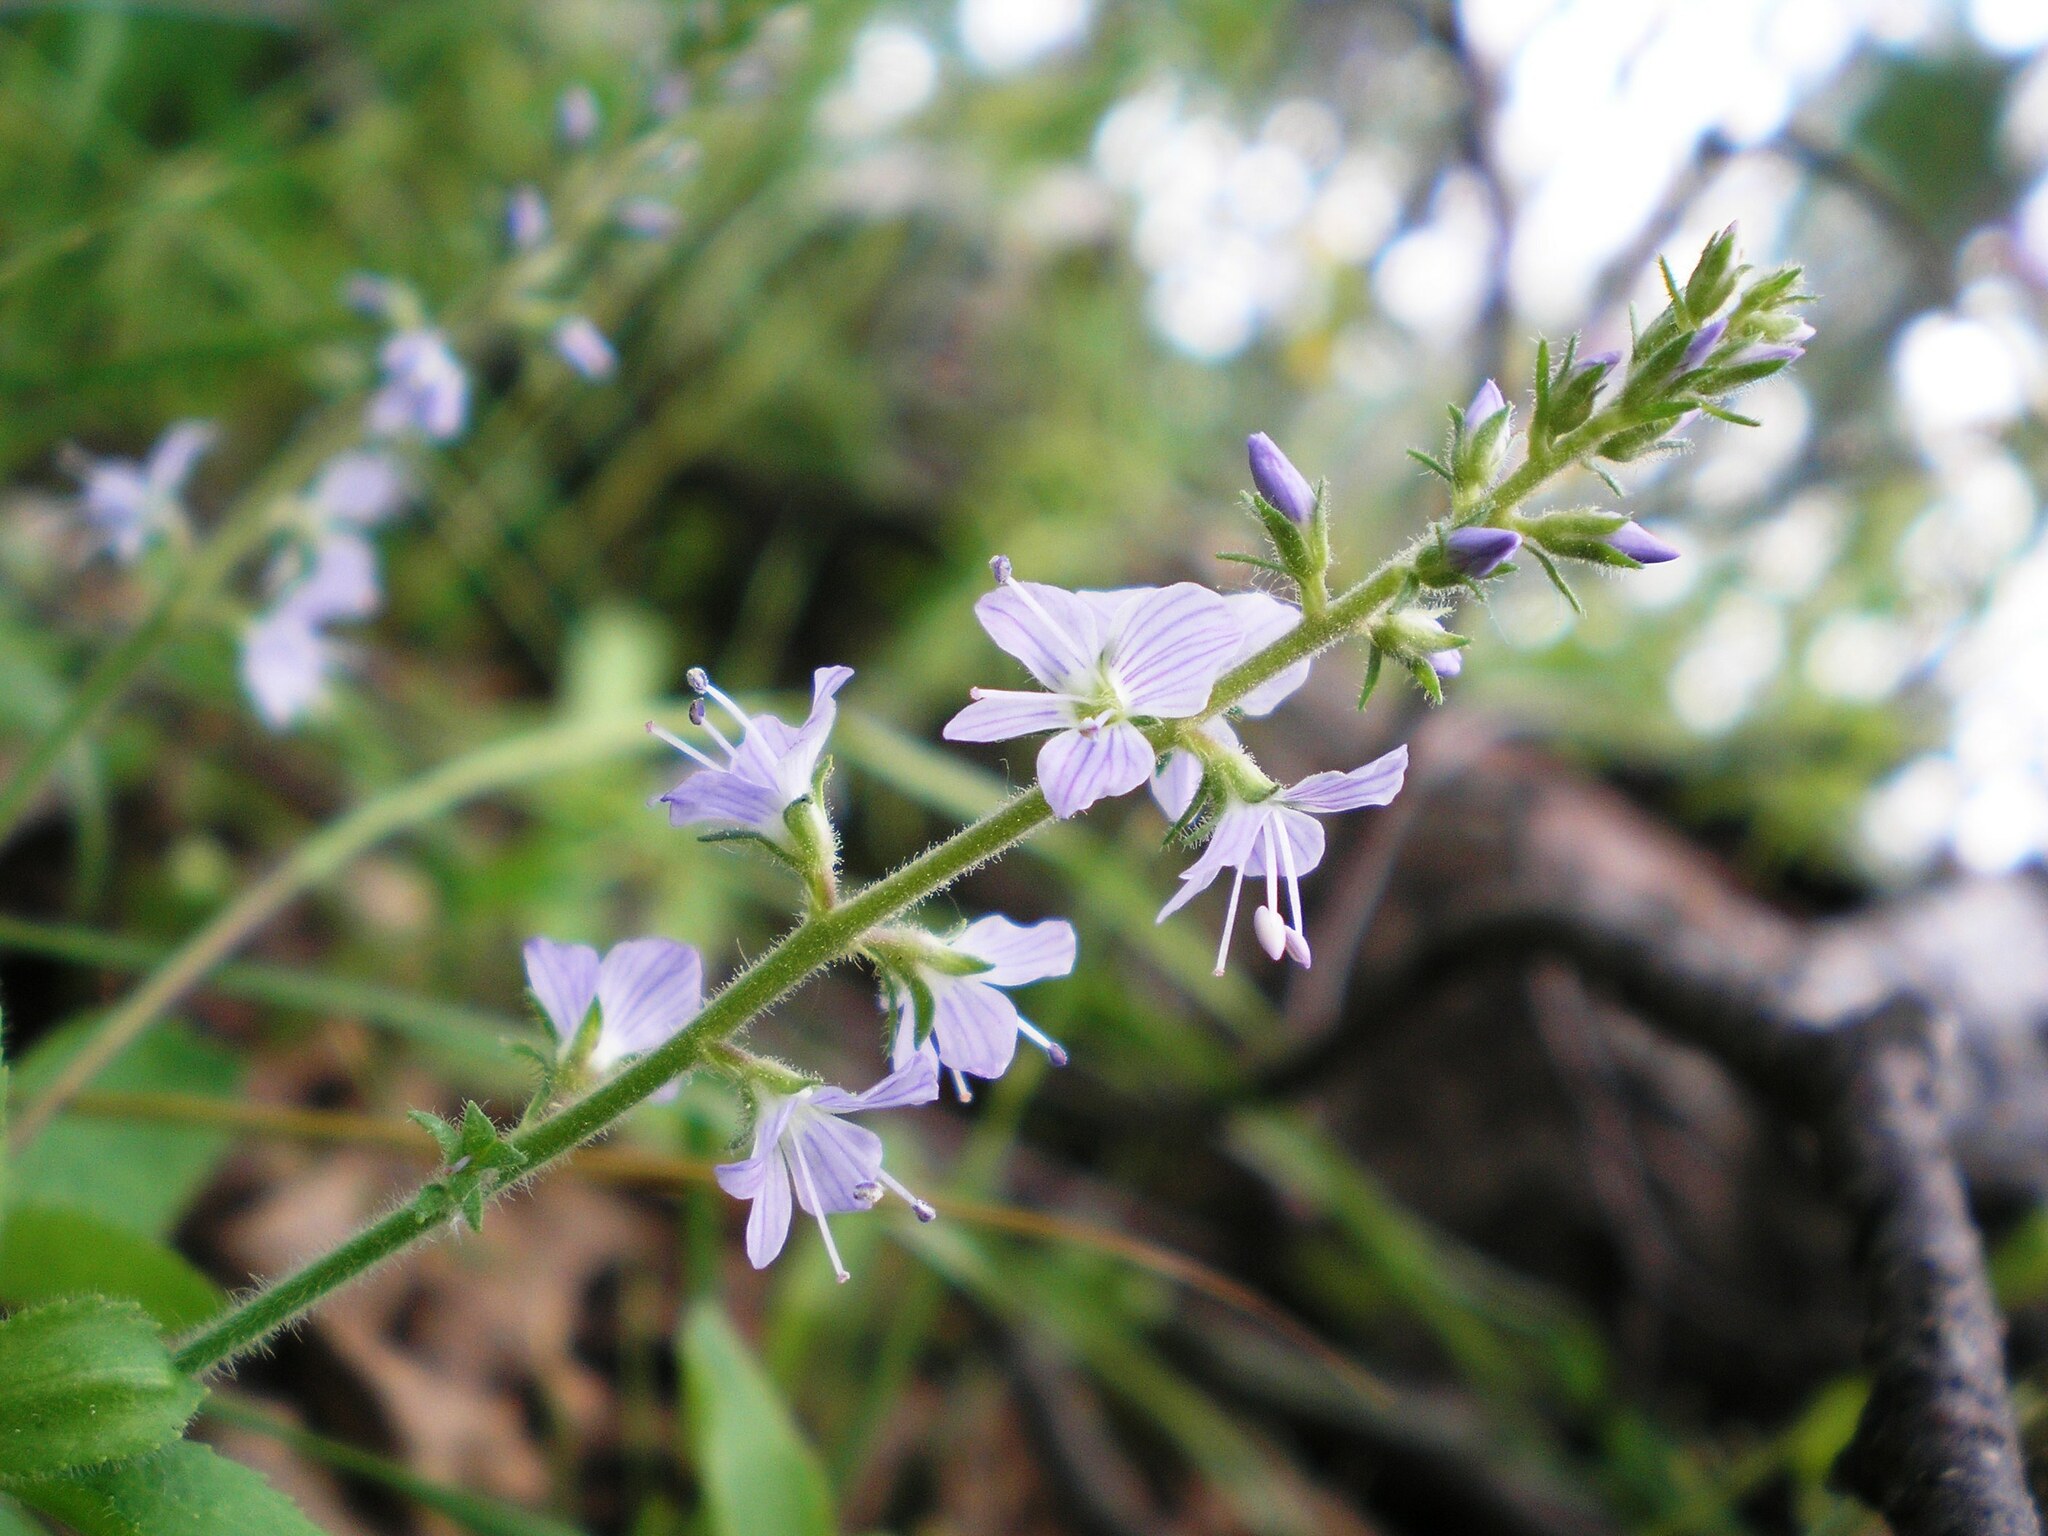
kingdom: Plantae
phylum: Tracheophyta
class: Magnoliopsida
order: Lamiales
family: Plantaginaceae
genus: Veronica
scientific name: Veronica officinalis
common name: Common speedwell
